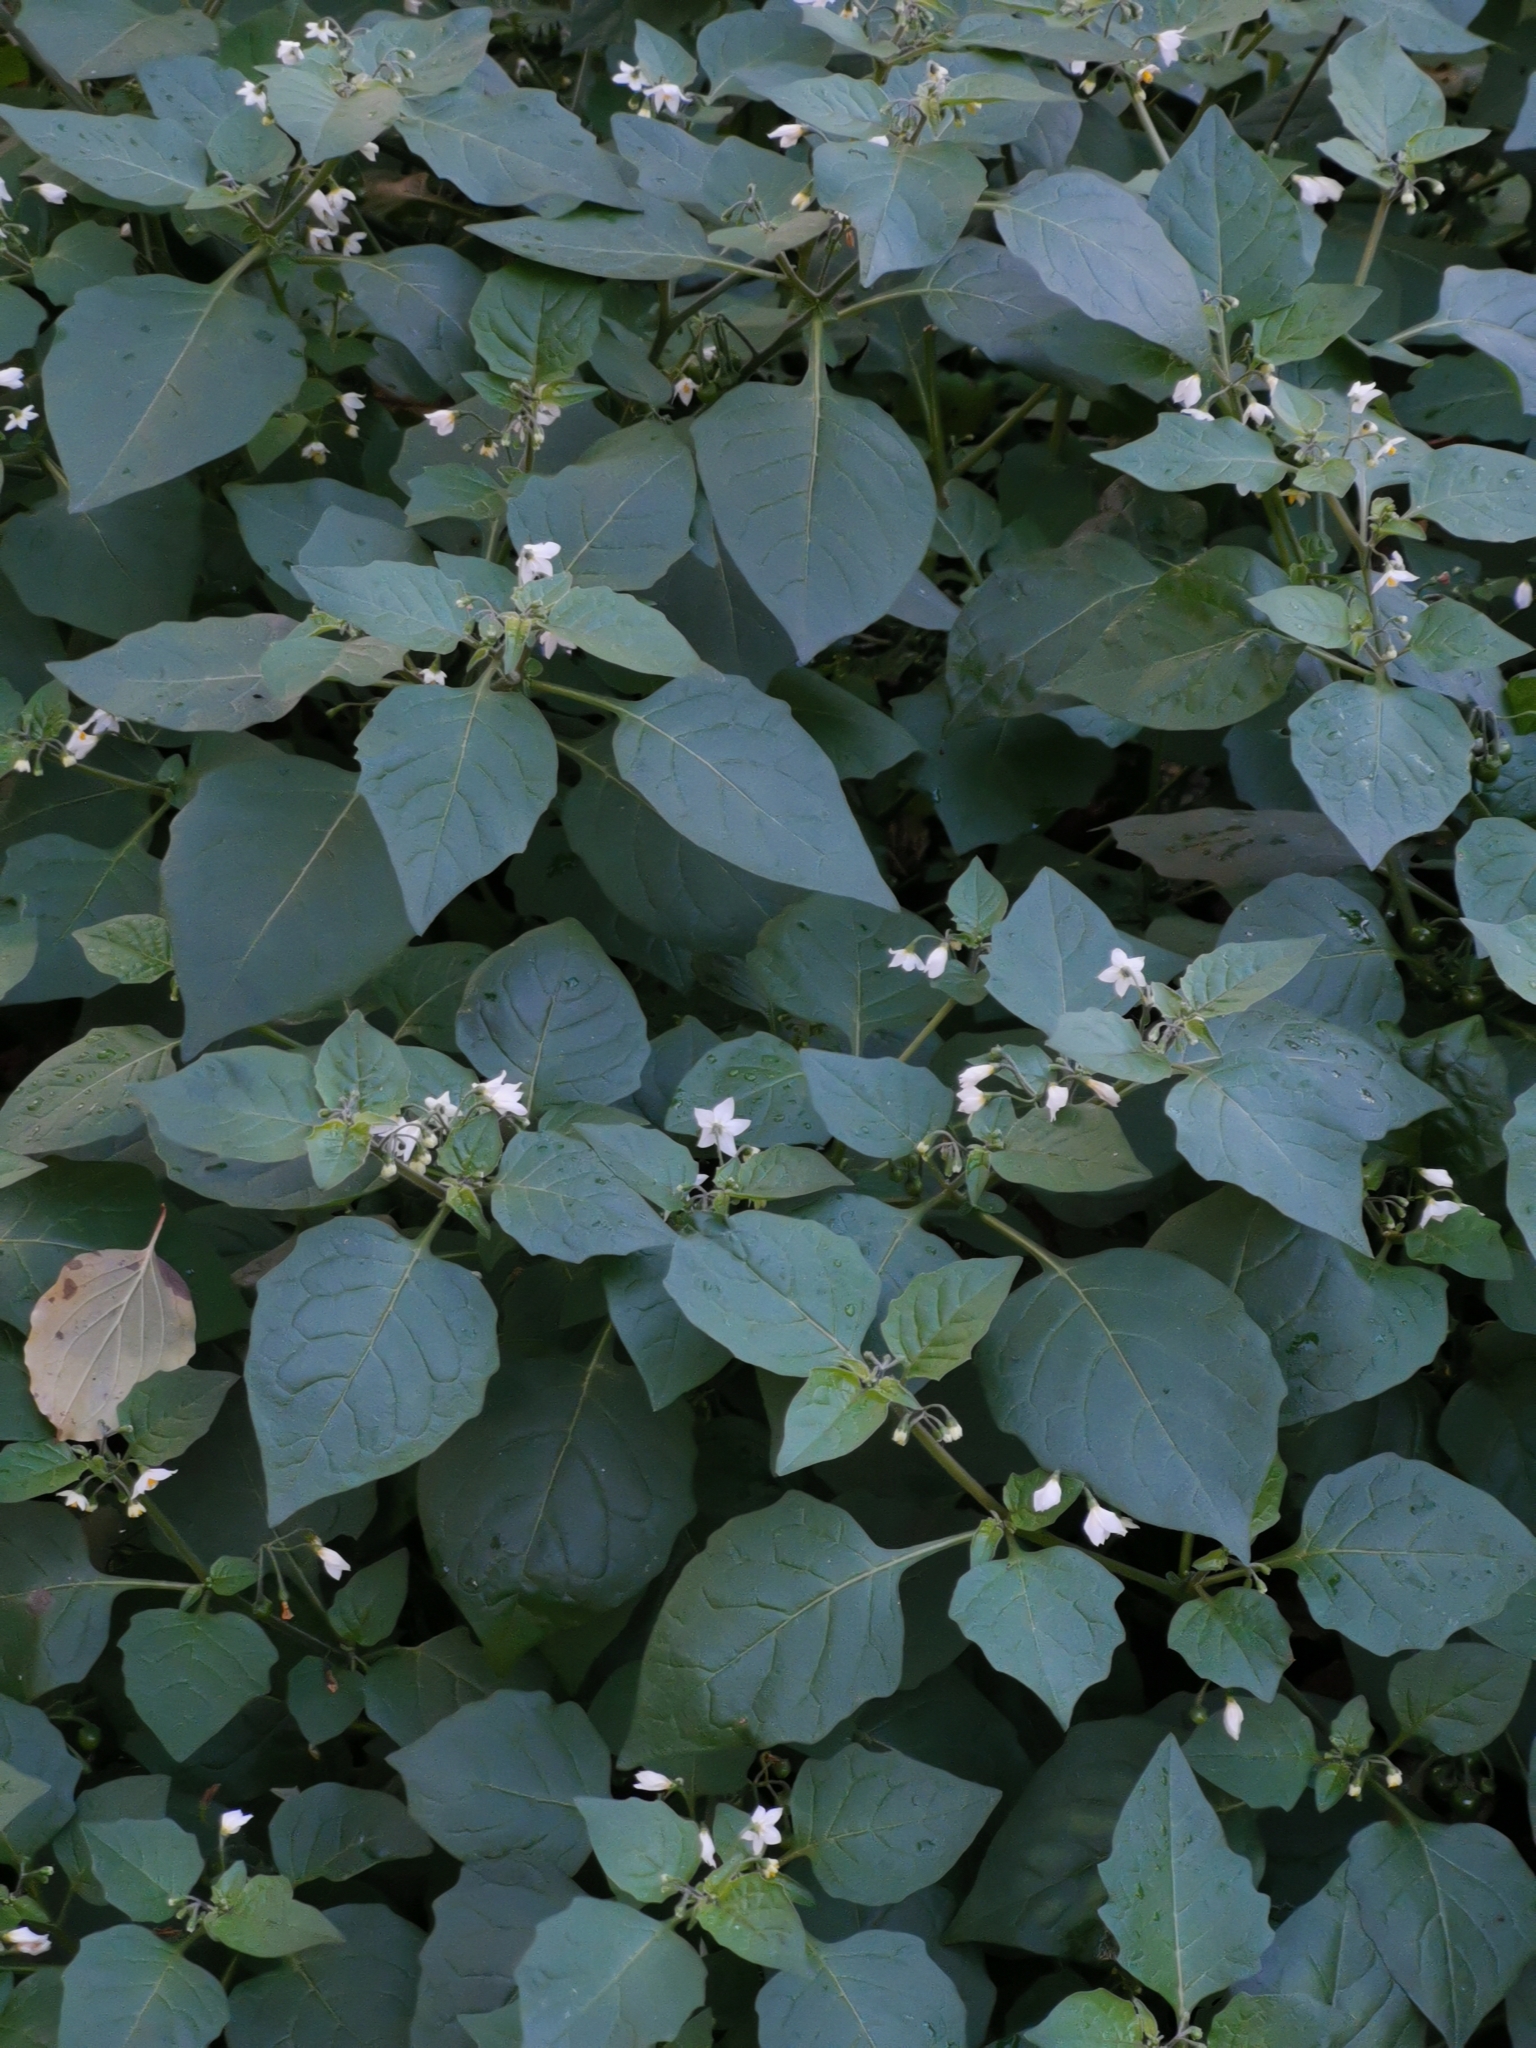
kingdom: Plantae
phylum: Tracheophyta
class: Magnoliopsida
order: Solanales
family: Solanaceae
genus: Solanum
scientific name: Solanum nigrum
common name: Black nightshade
